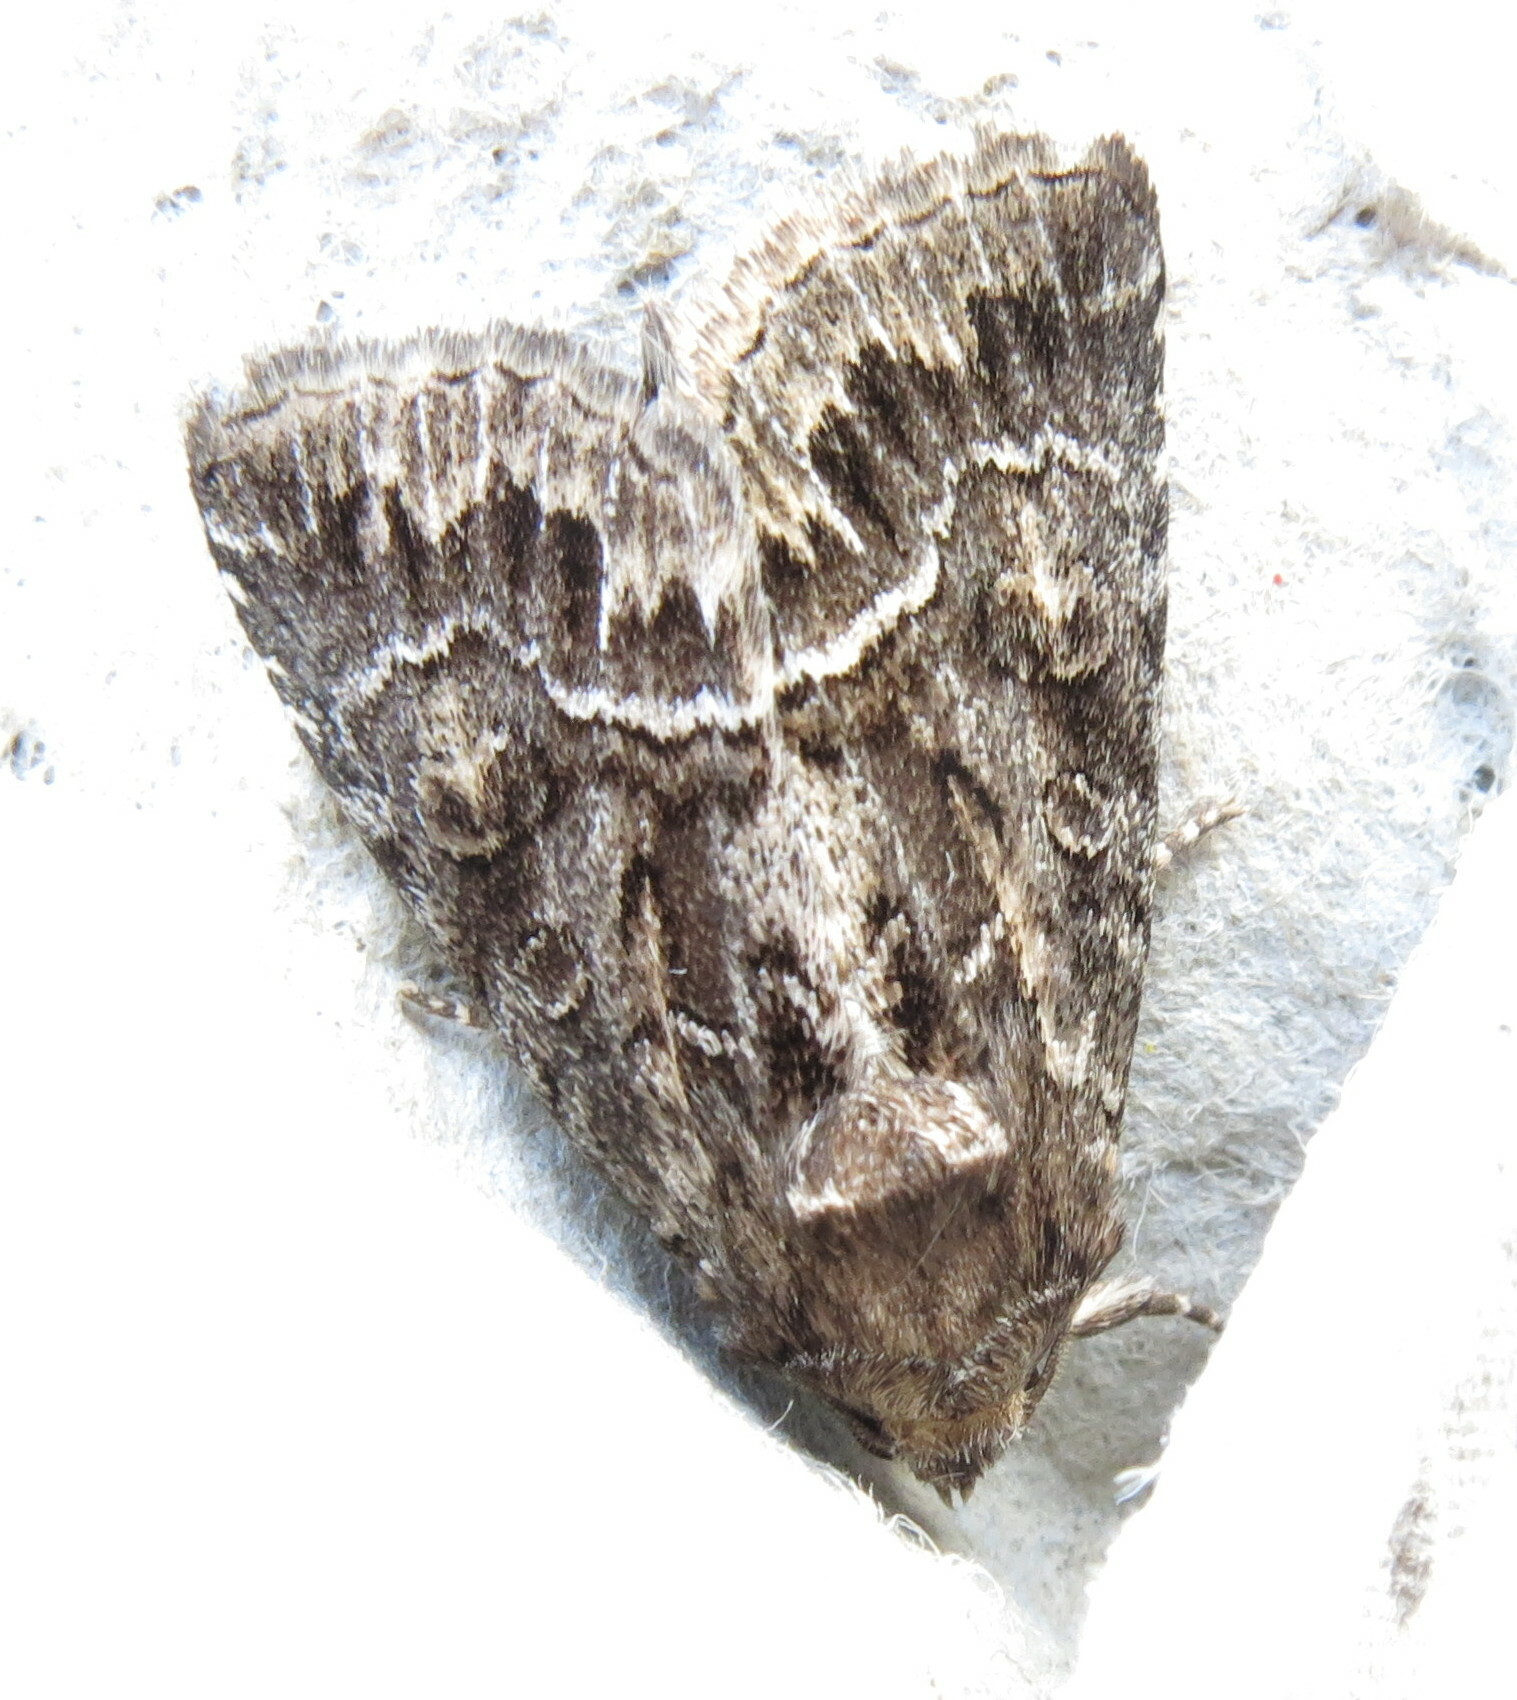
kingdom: Animalia
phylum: Arthropoda
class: Insecta
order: Lepidoptera
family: Noctuidae
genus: Thalpophila
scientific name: Thalpophila matura
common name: Straw underwing
